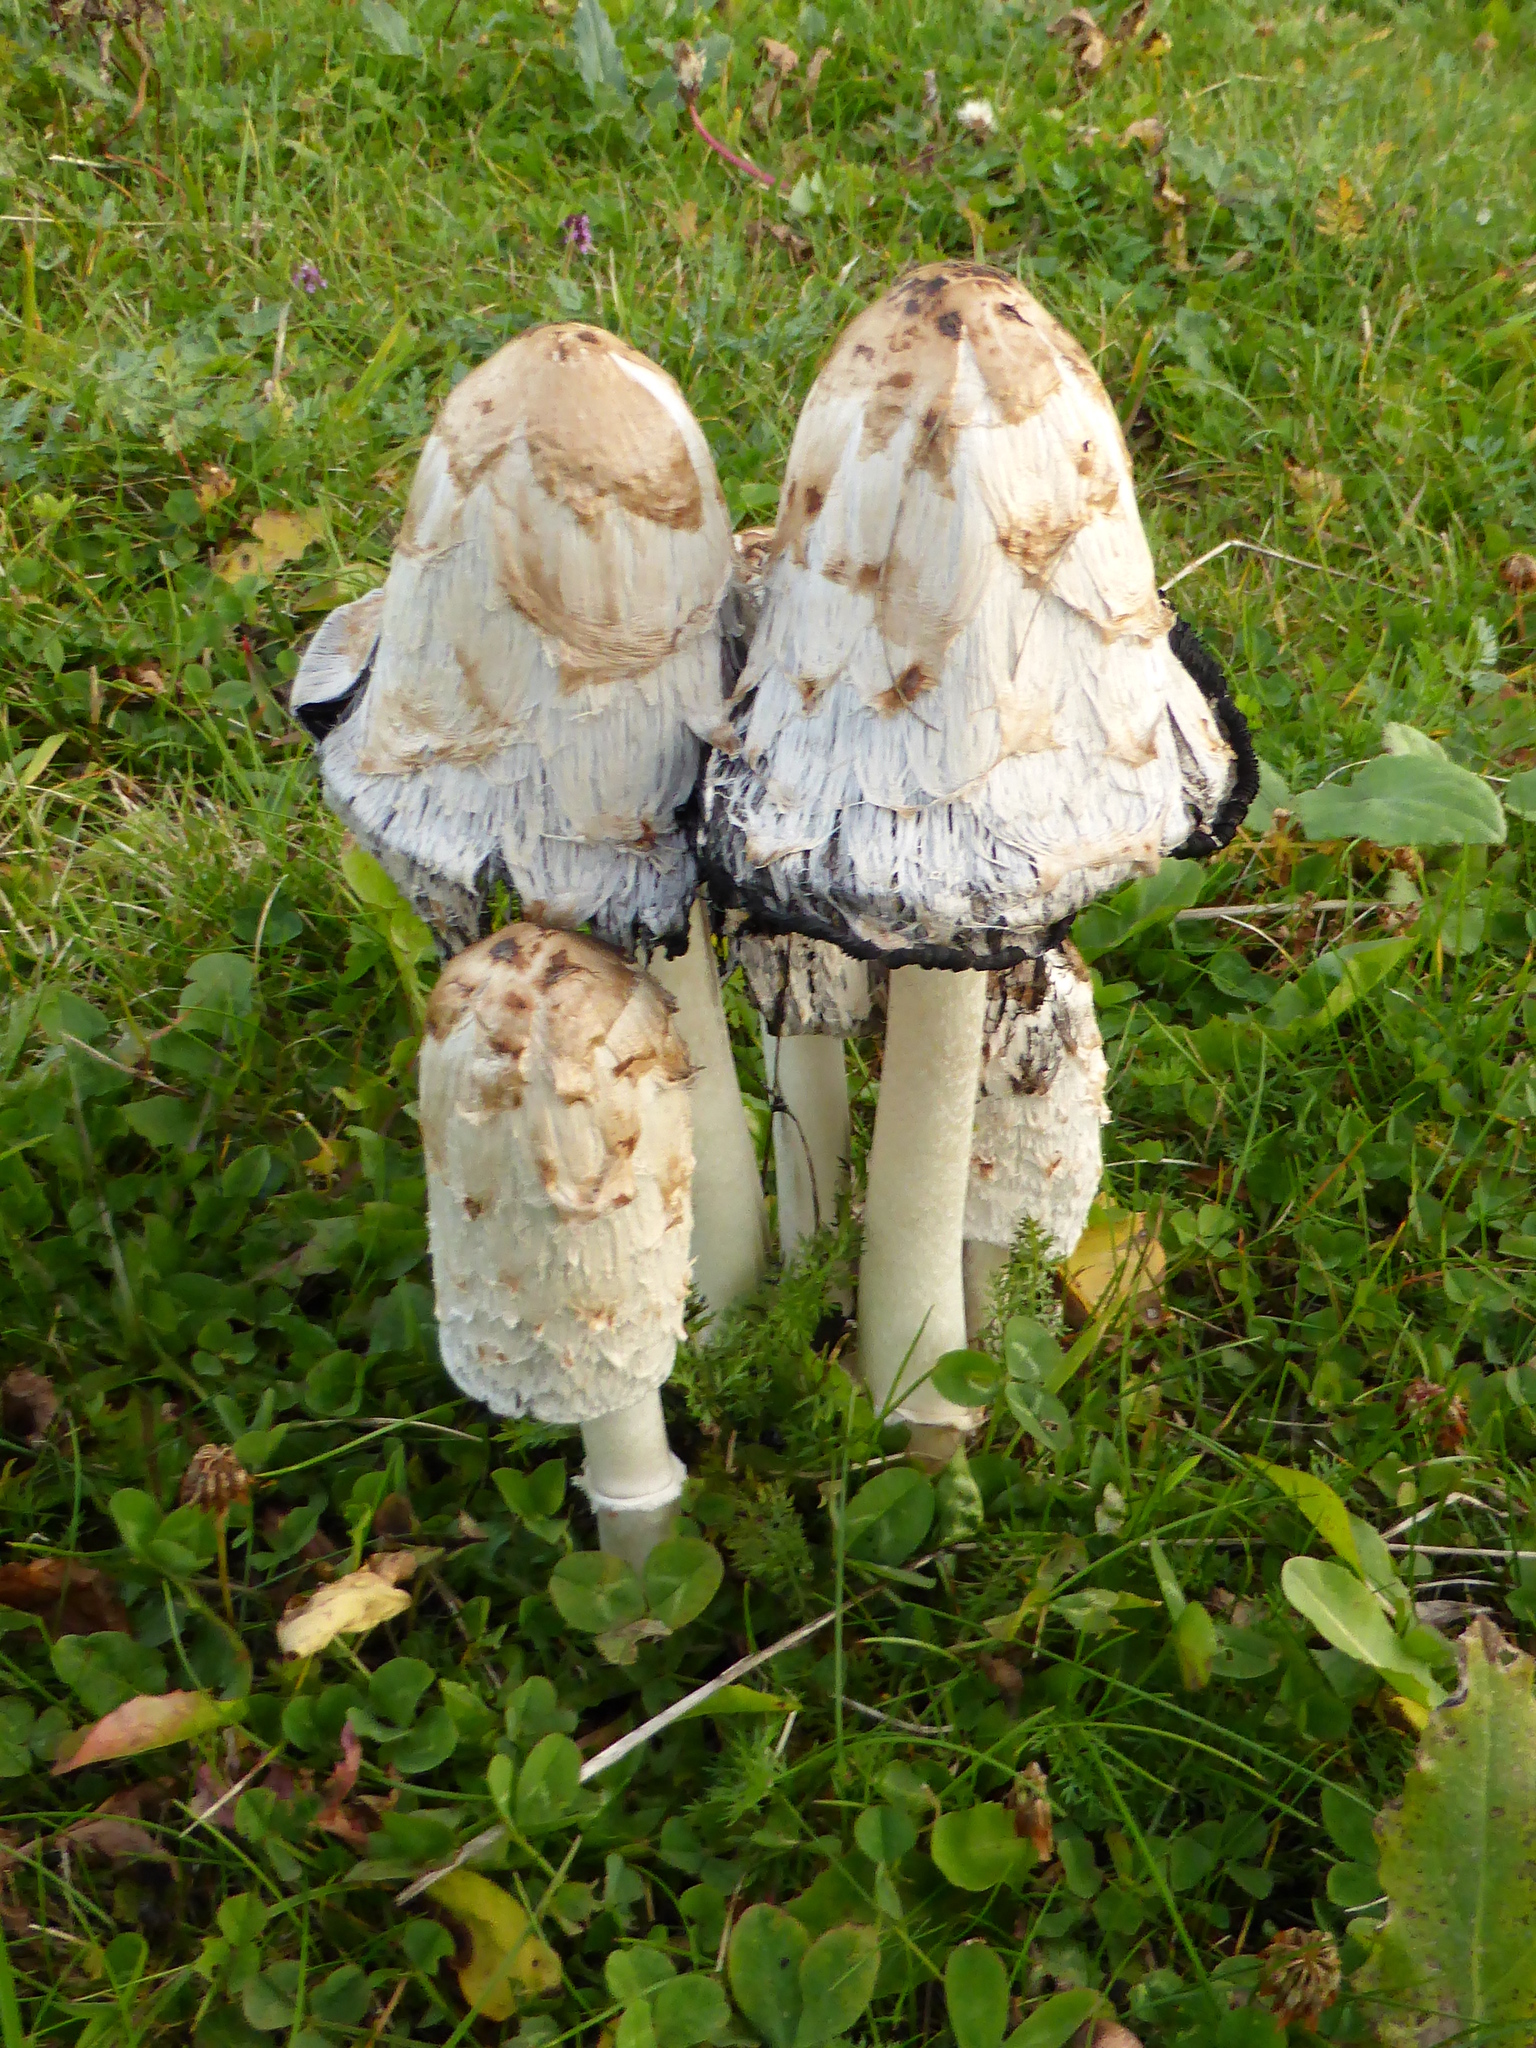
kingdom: Fungi
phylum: Basidiomycota
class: Agaricomycetes
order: Agaricales
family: Agaricaceae
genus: Coprinus
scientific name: Coprinus comatus
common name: Lawyer's wig
